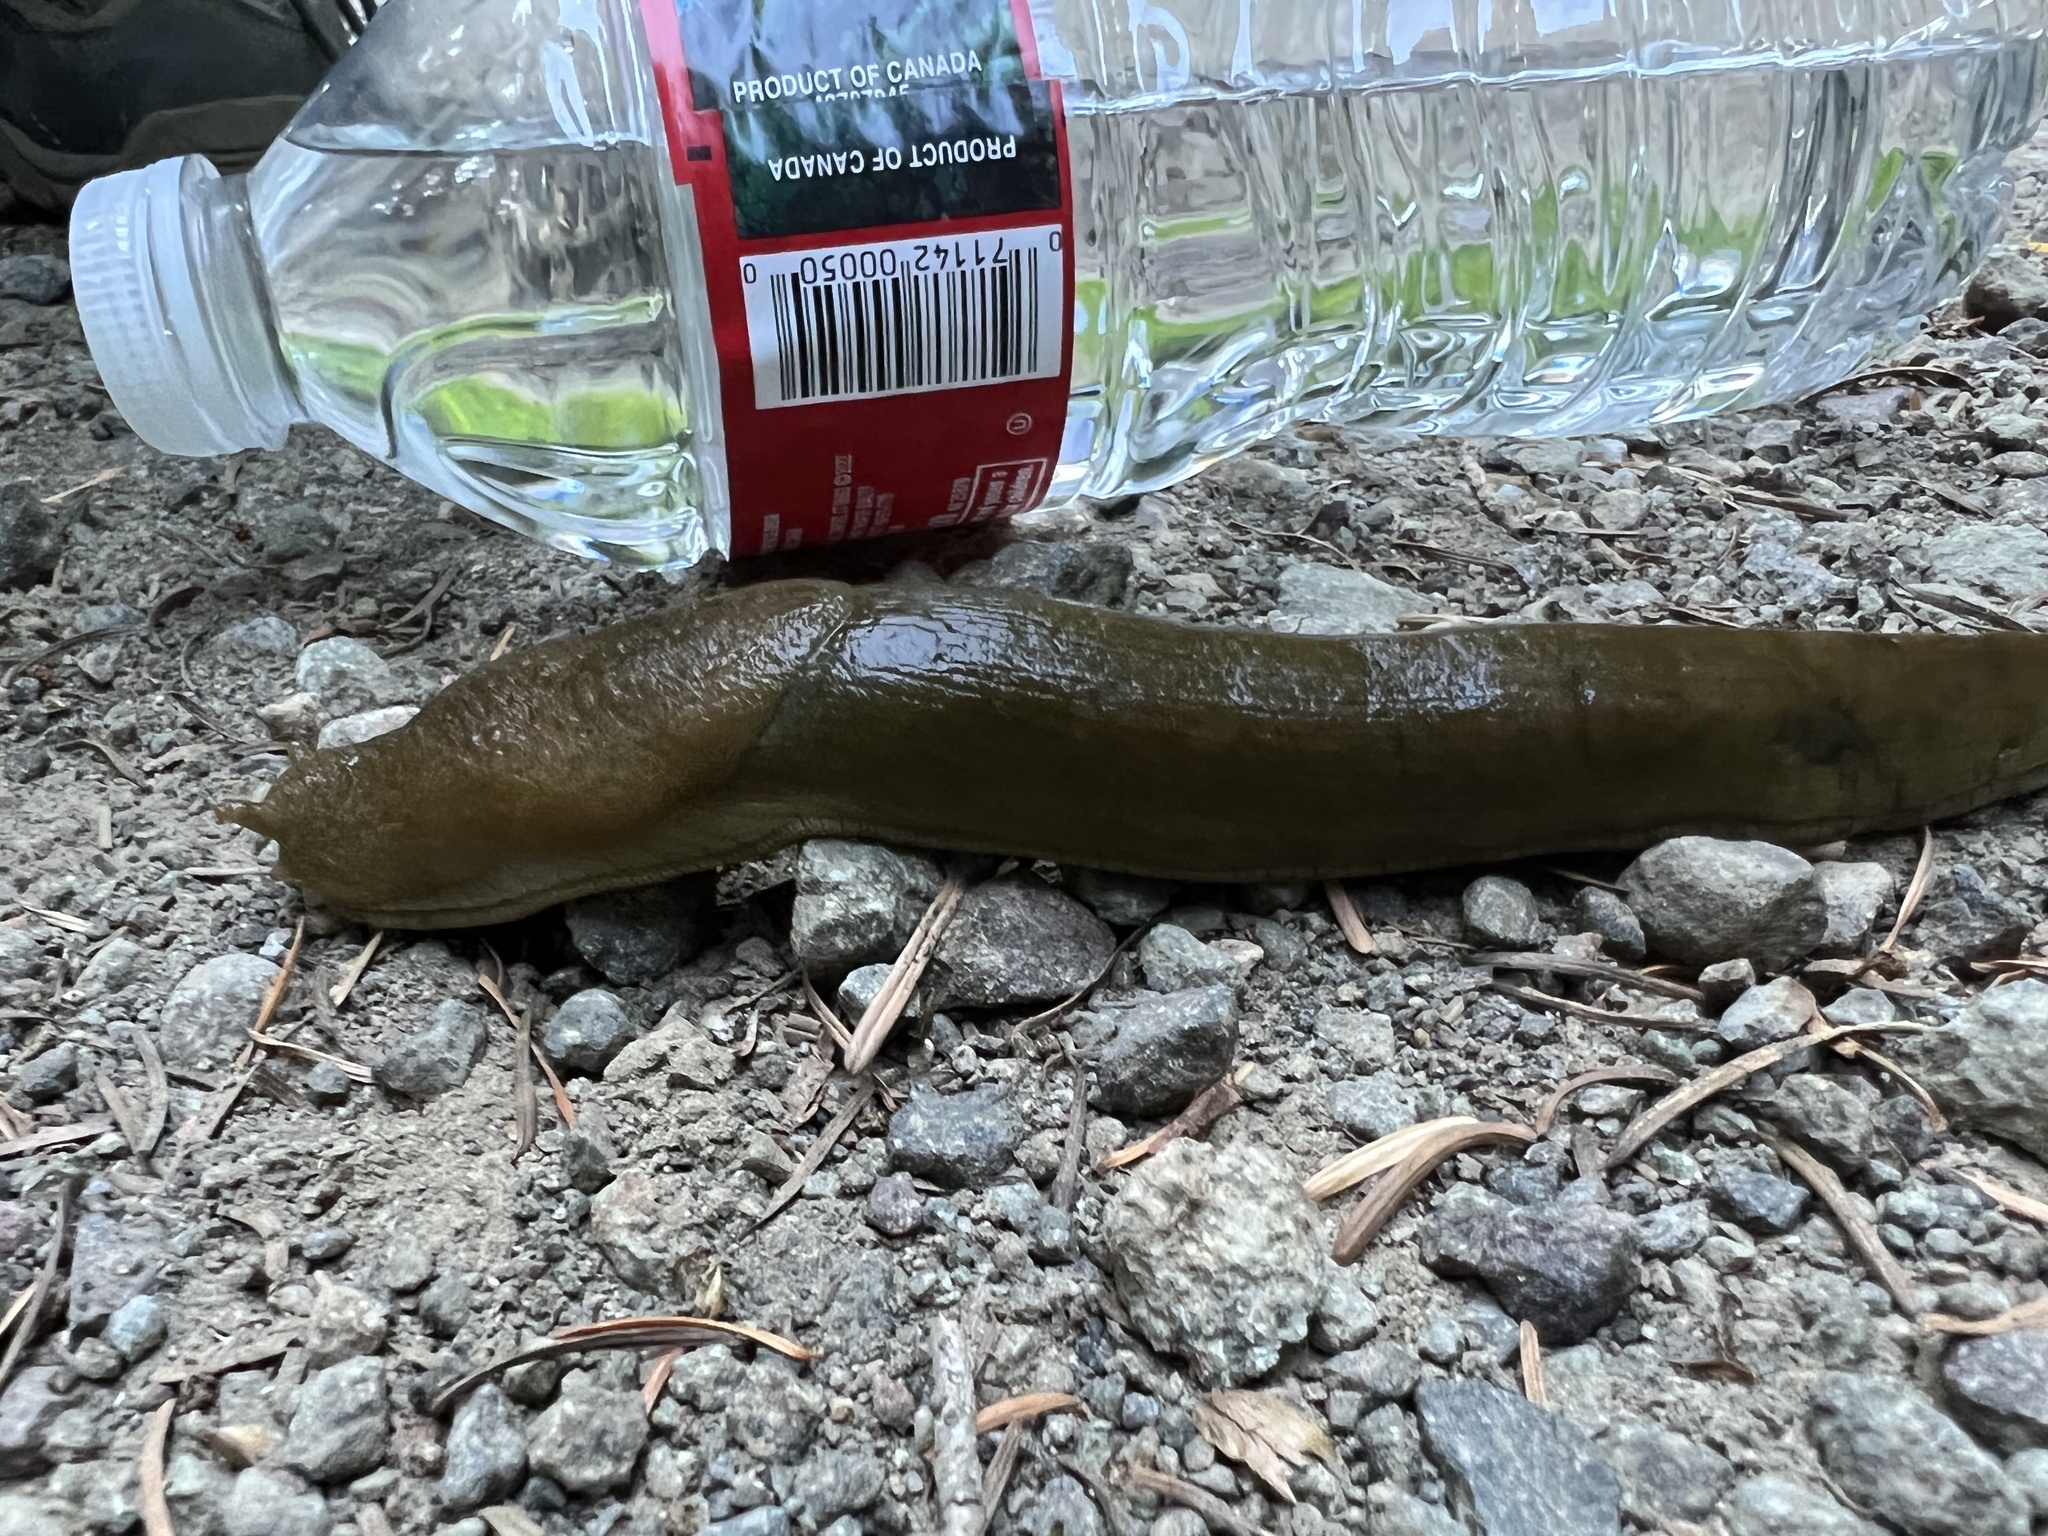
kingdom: Animalia
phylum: Mollusca
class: Gastropoda
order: Stylommatophora
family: Ariolimacidae
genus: Ariolimax
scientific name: Ariolimax columbianus
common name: Pacific banana slug
